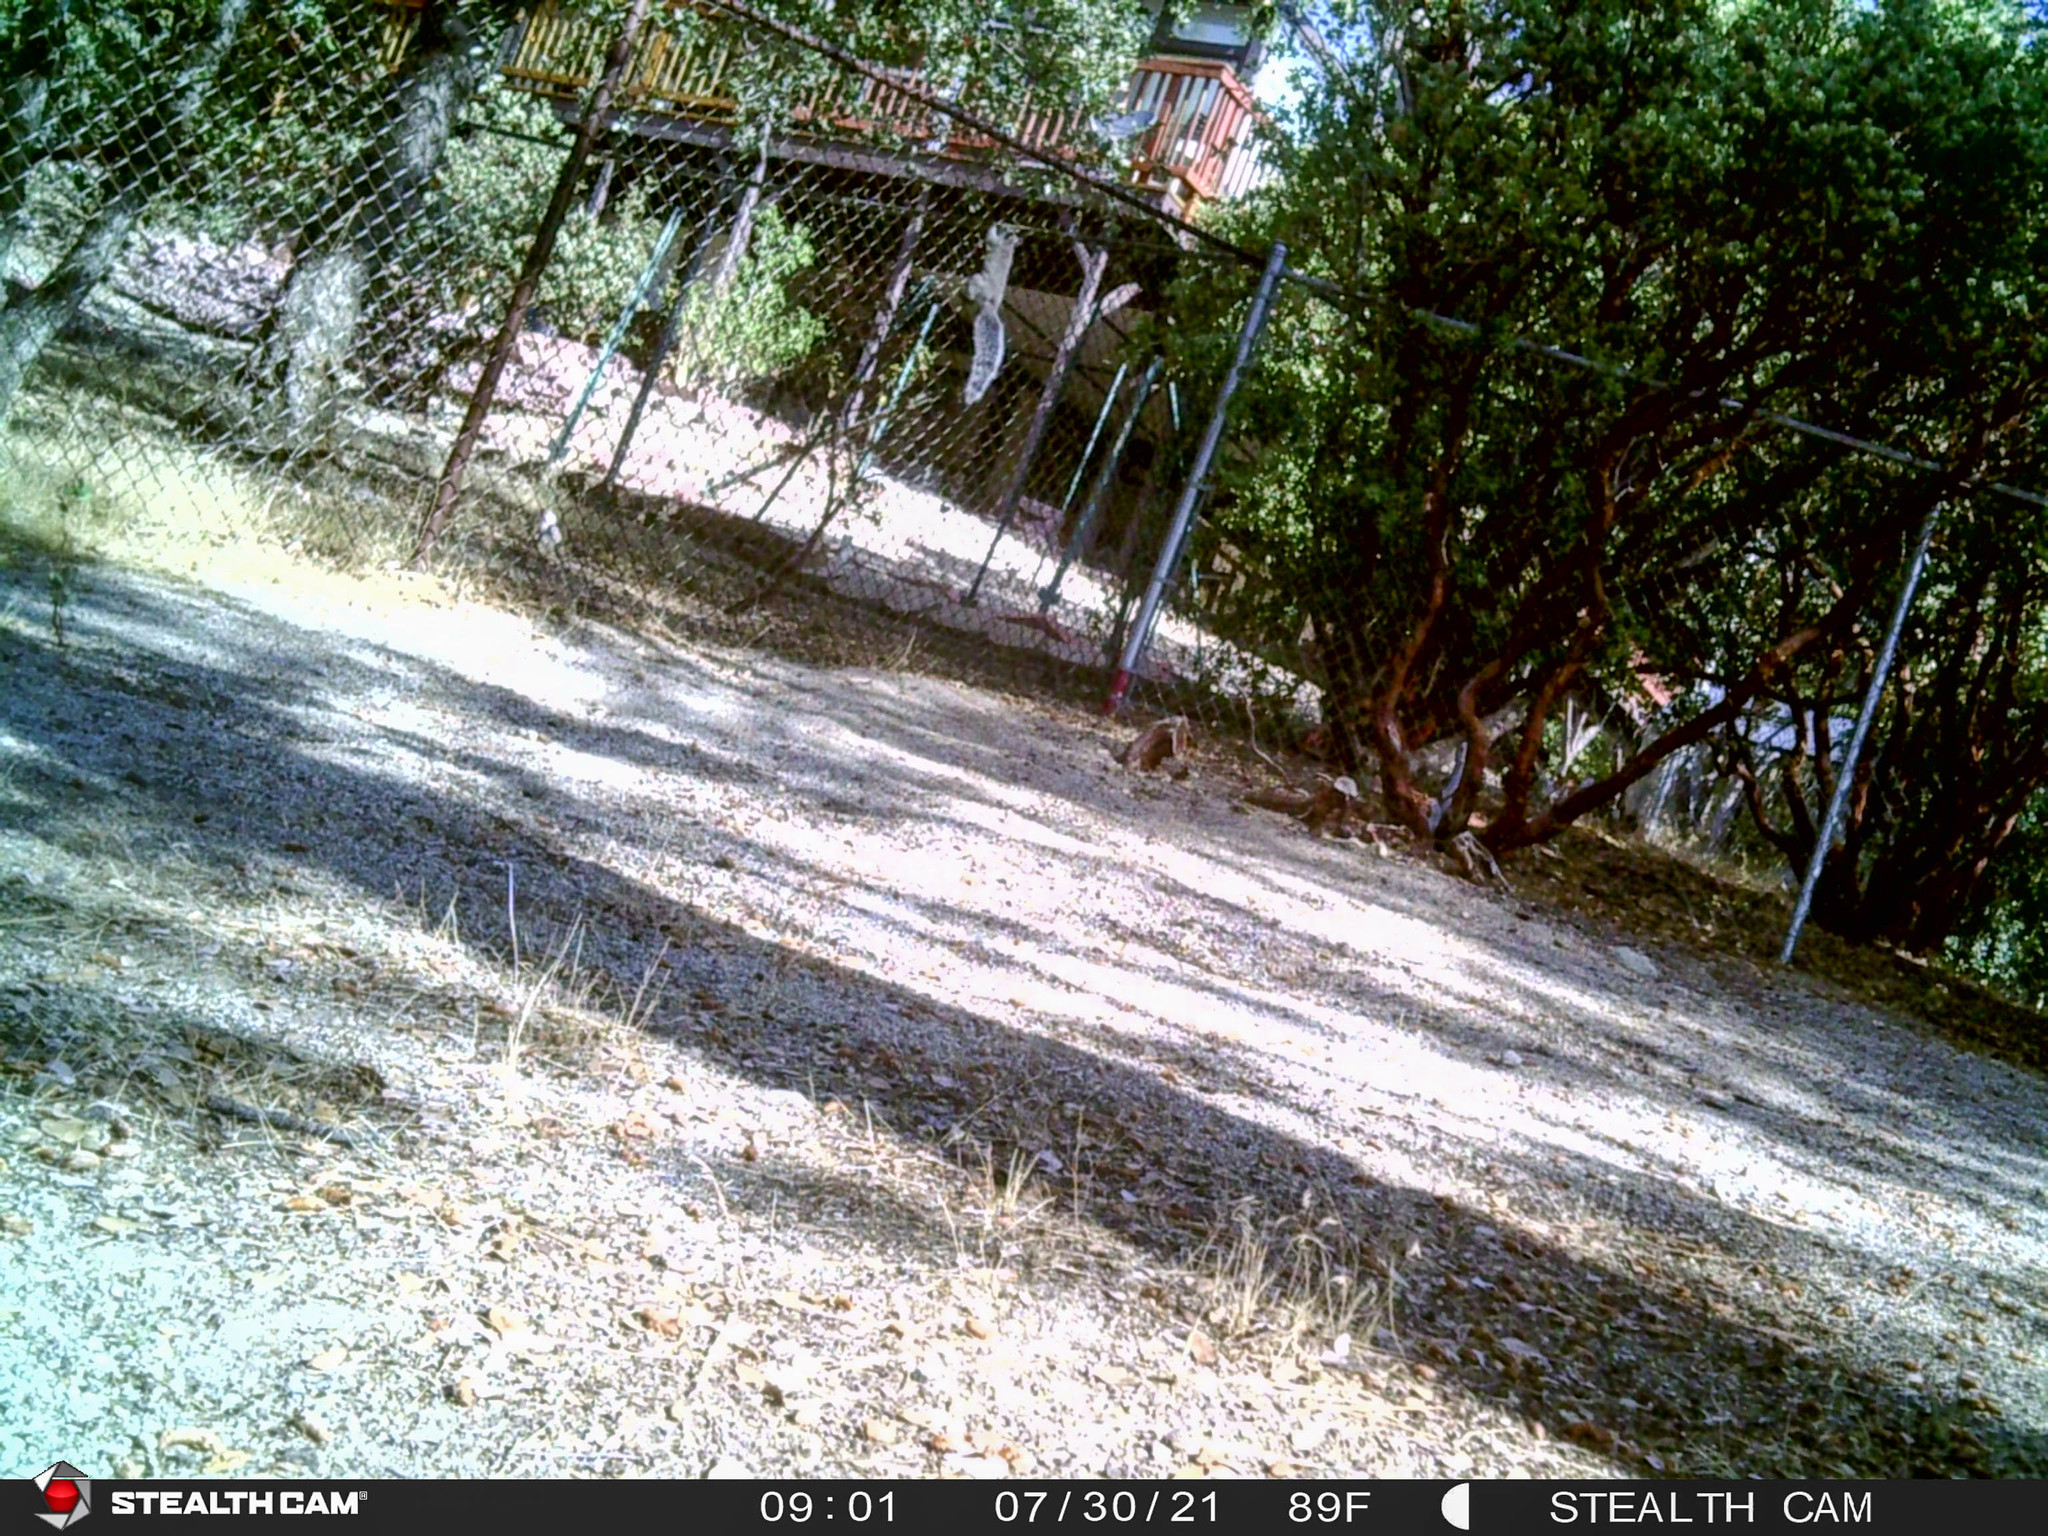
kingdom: Animalia
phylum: Chordata
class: Mammalia
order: Rodentia
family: Sciuridae
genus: Sciurus
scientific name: Sciurus griseus
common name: Western gray squirrel
